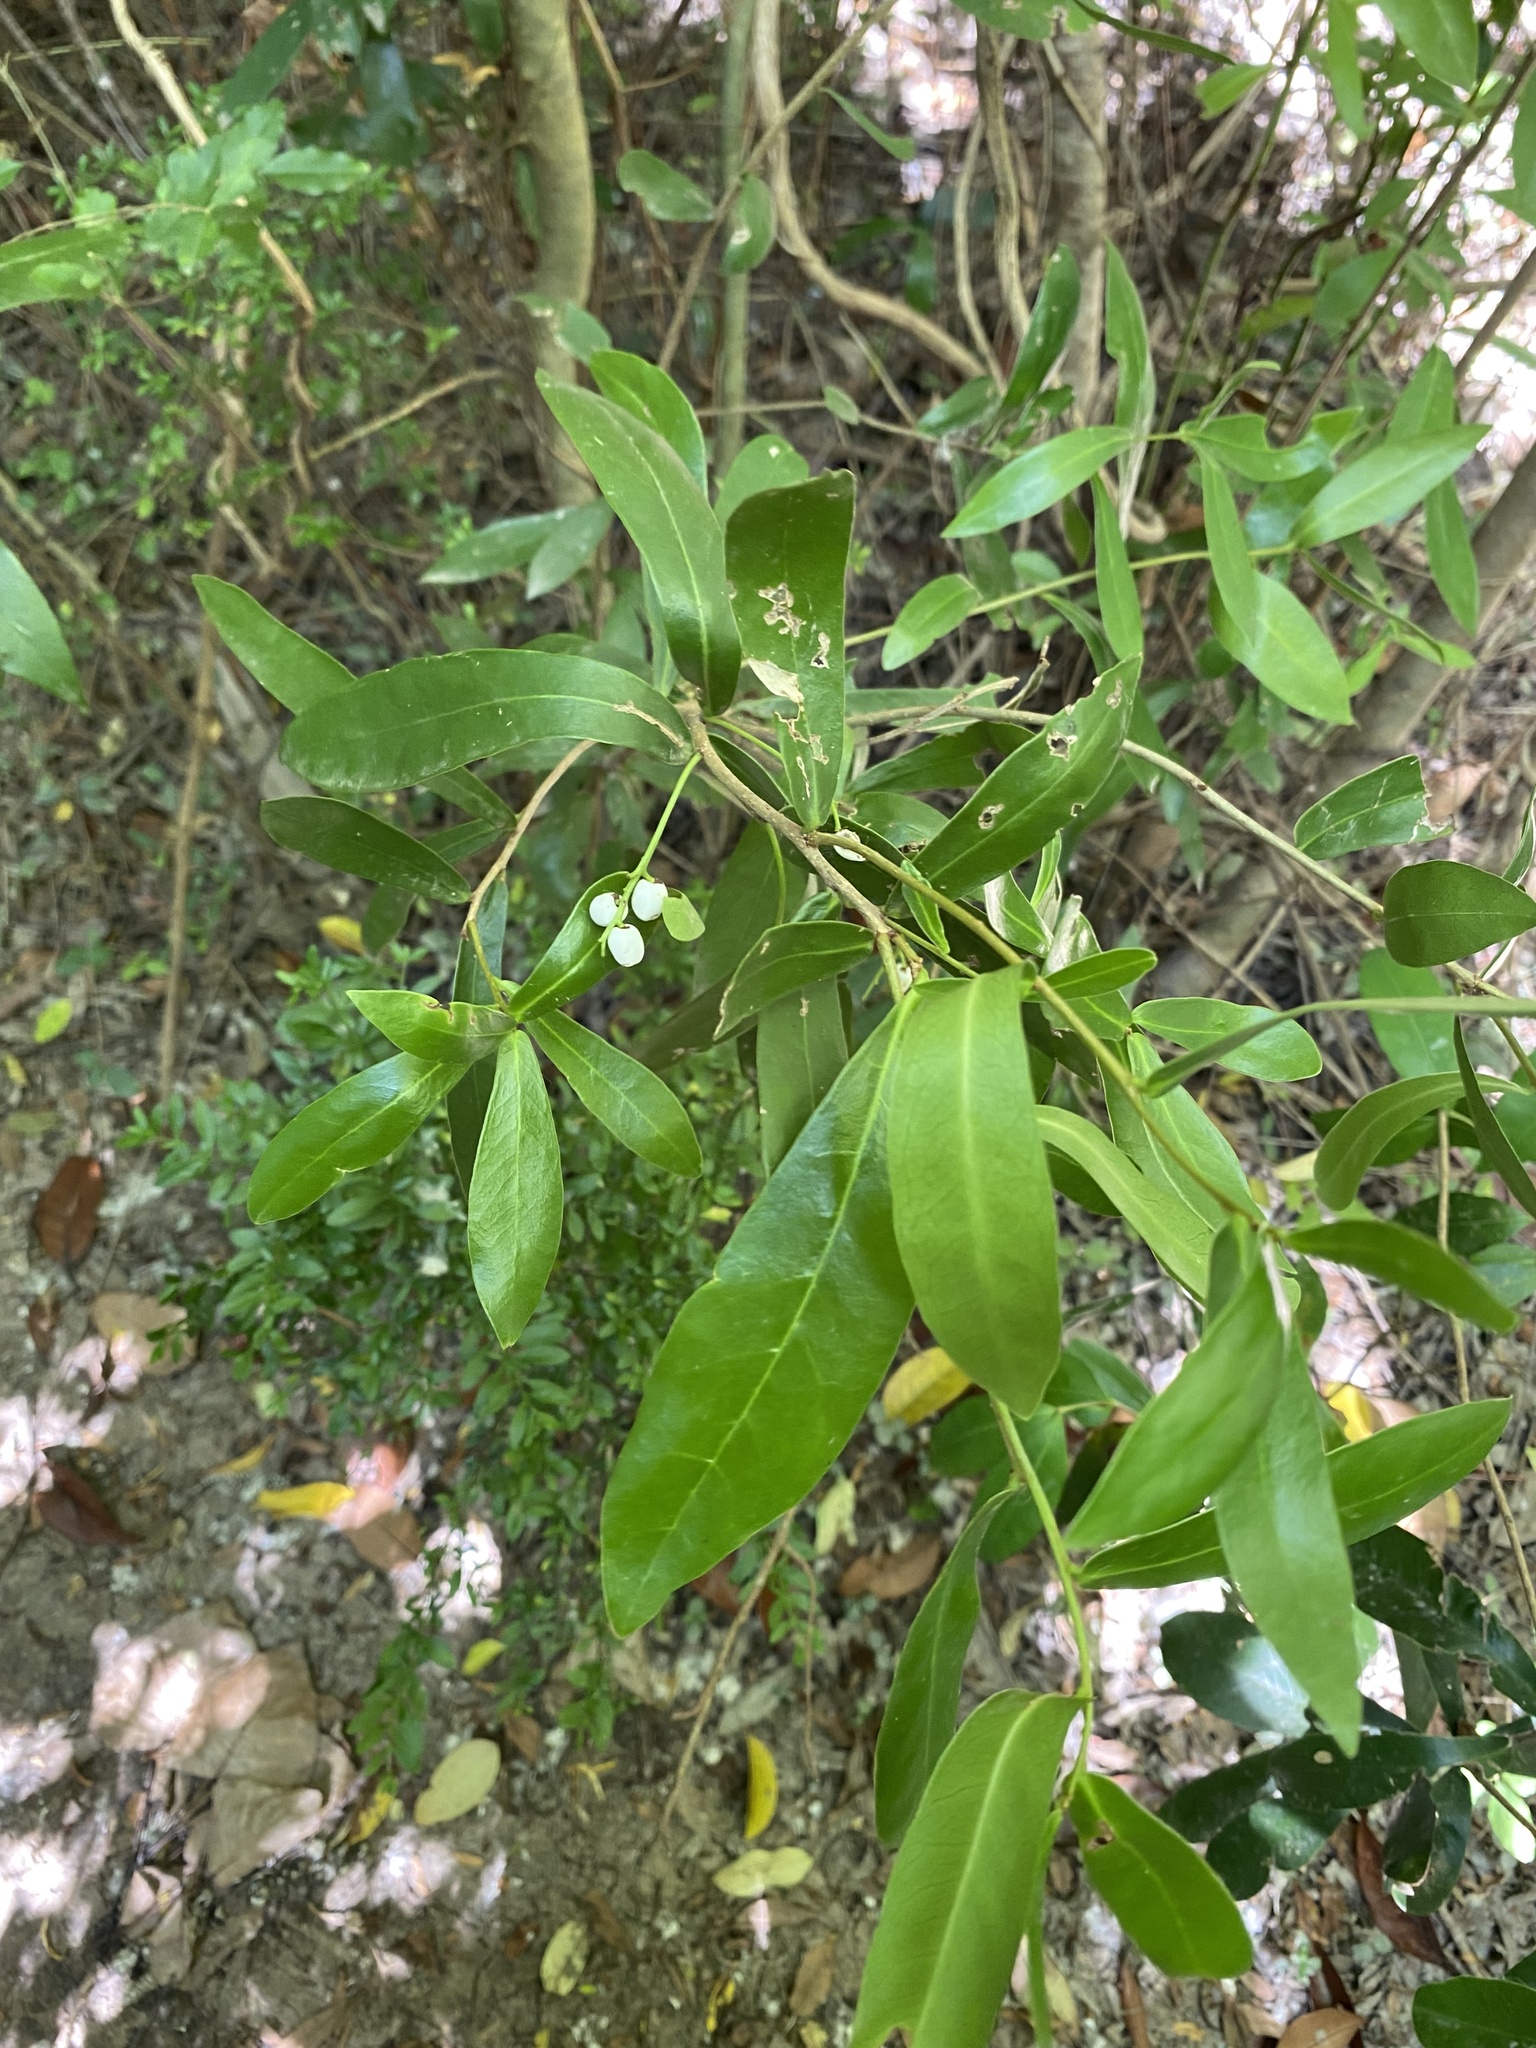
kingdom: Plantae
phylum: Tracheophyta
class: Magnoliopsida
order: Malvales
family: Thymelaeaceae
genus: Daphnopsis
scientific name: Daphnopsis racemosa
